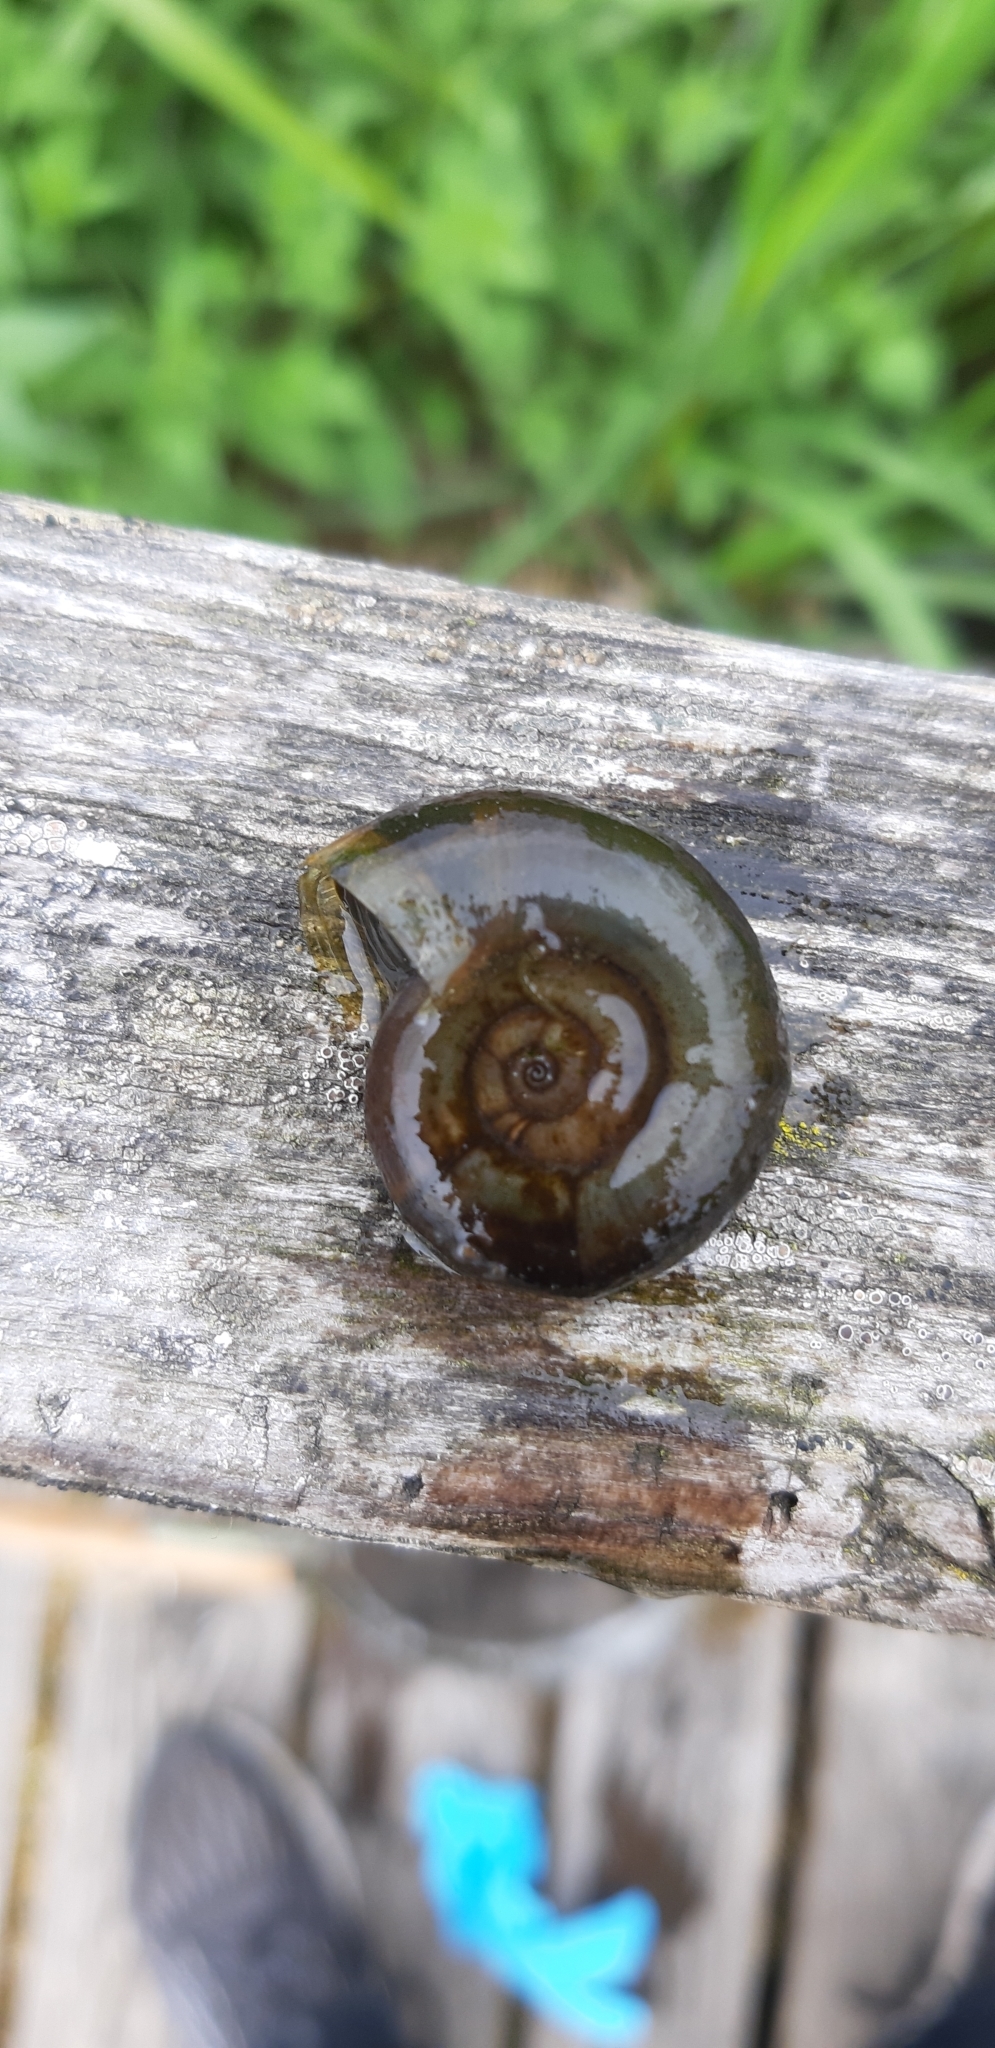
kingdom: Animalia
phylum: Mollusca
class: Gastropoda
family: Planorbidae
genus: Planorbarius
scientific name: Planorbarius corneus
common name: Great ramshorn
